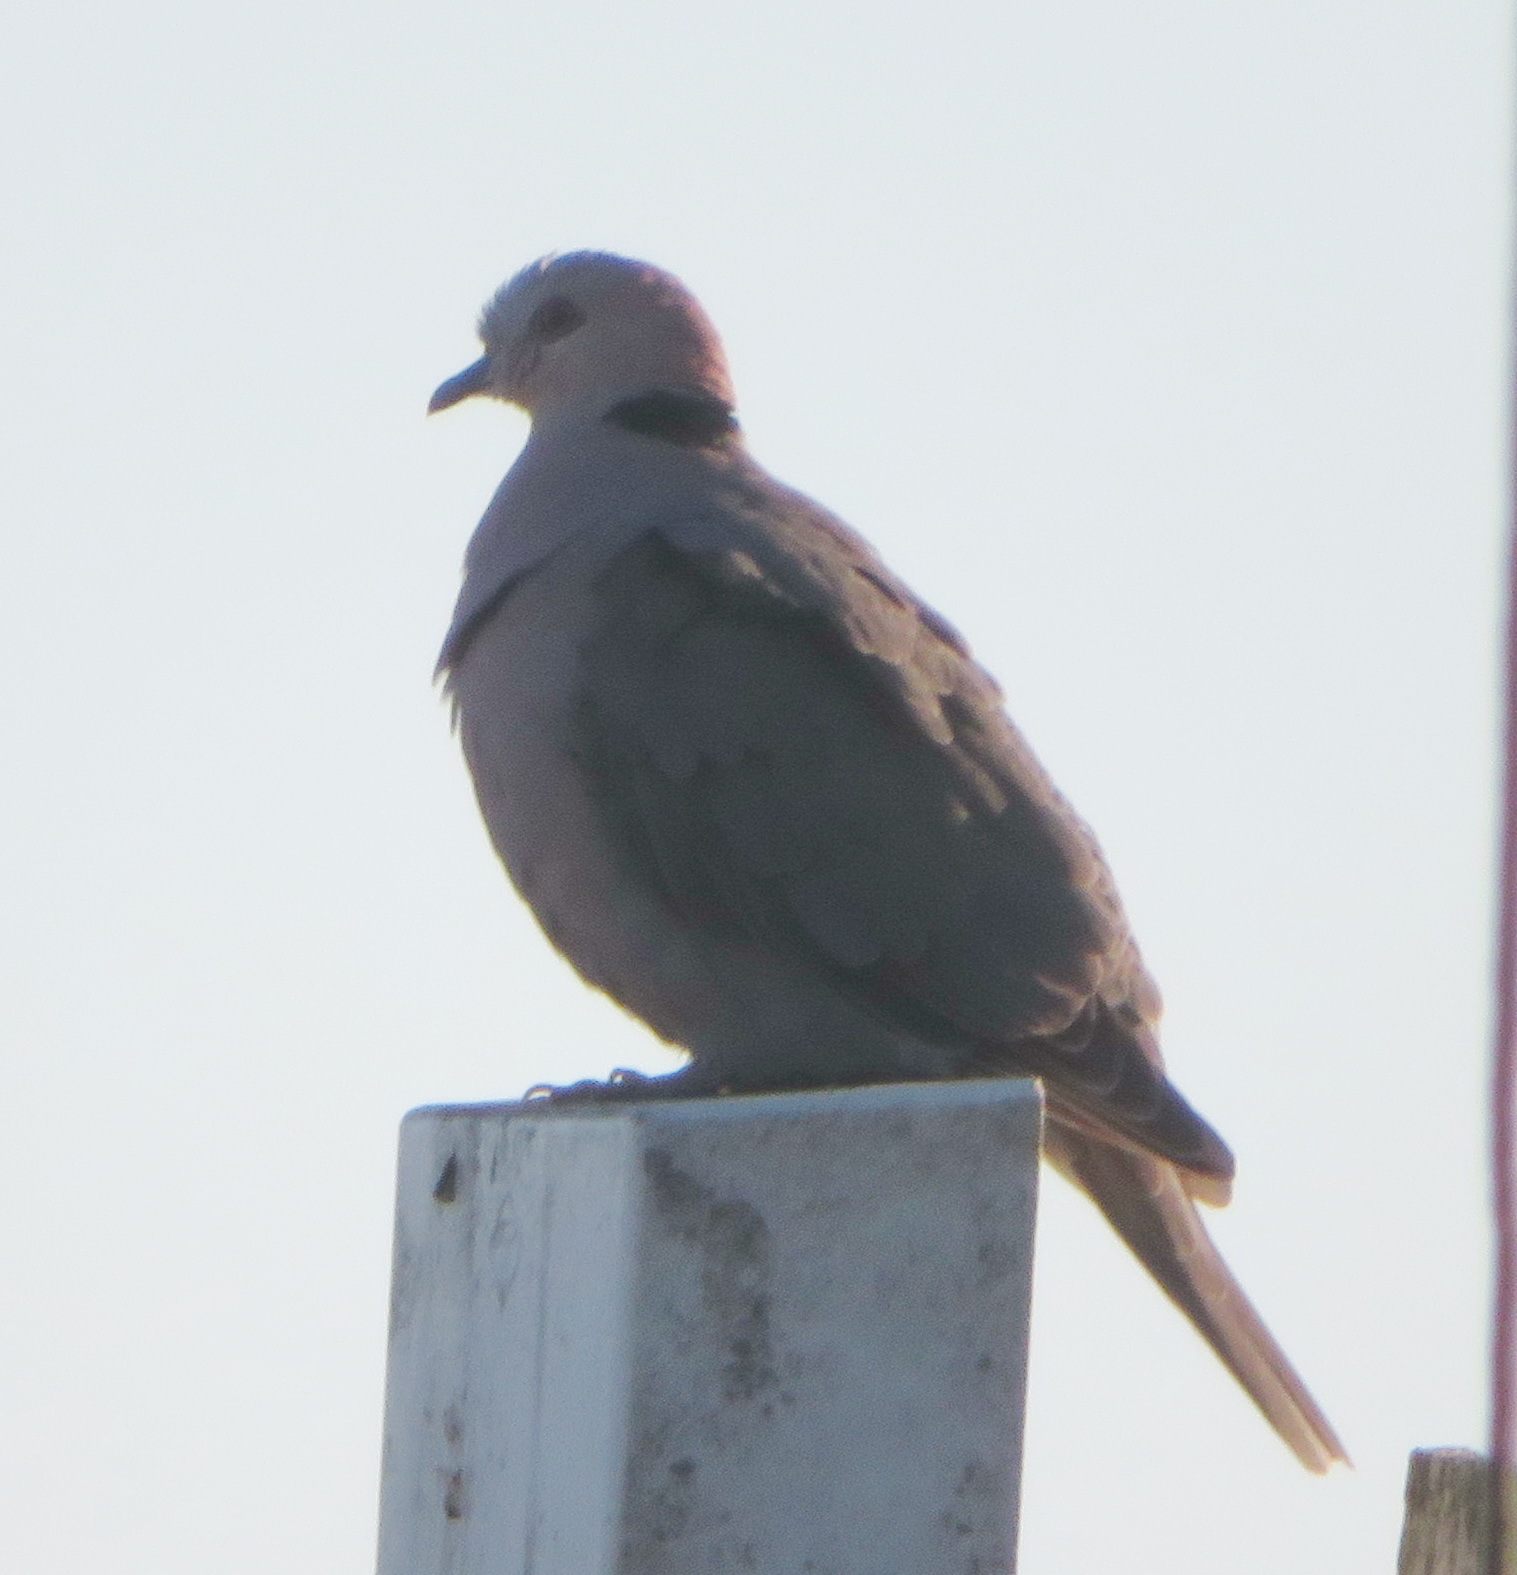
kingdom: Animalia
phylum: Chordata
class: Aves
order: Columbiformes
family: Columbidae
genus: Streptopelia
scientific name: Streptopelia semitorquata
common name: Red-eyed dove
